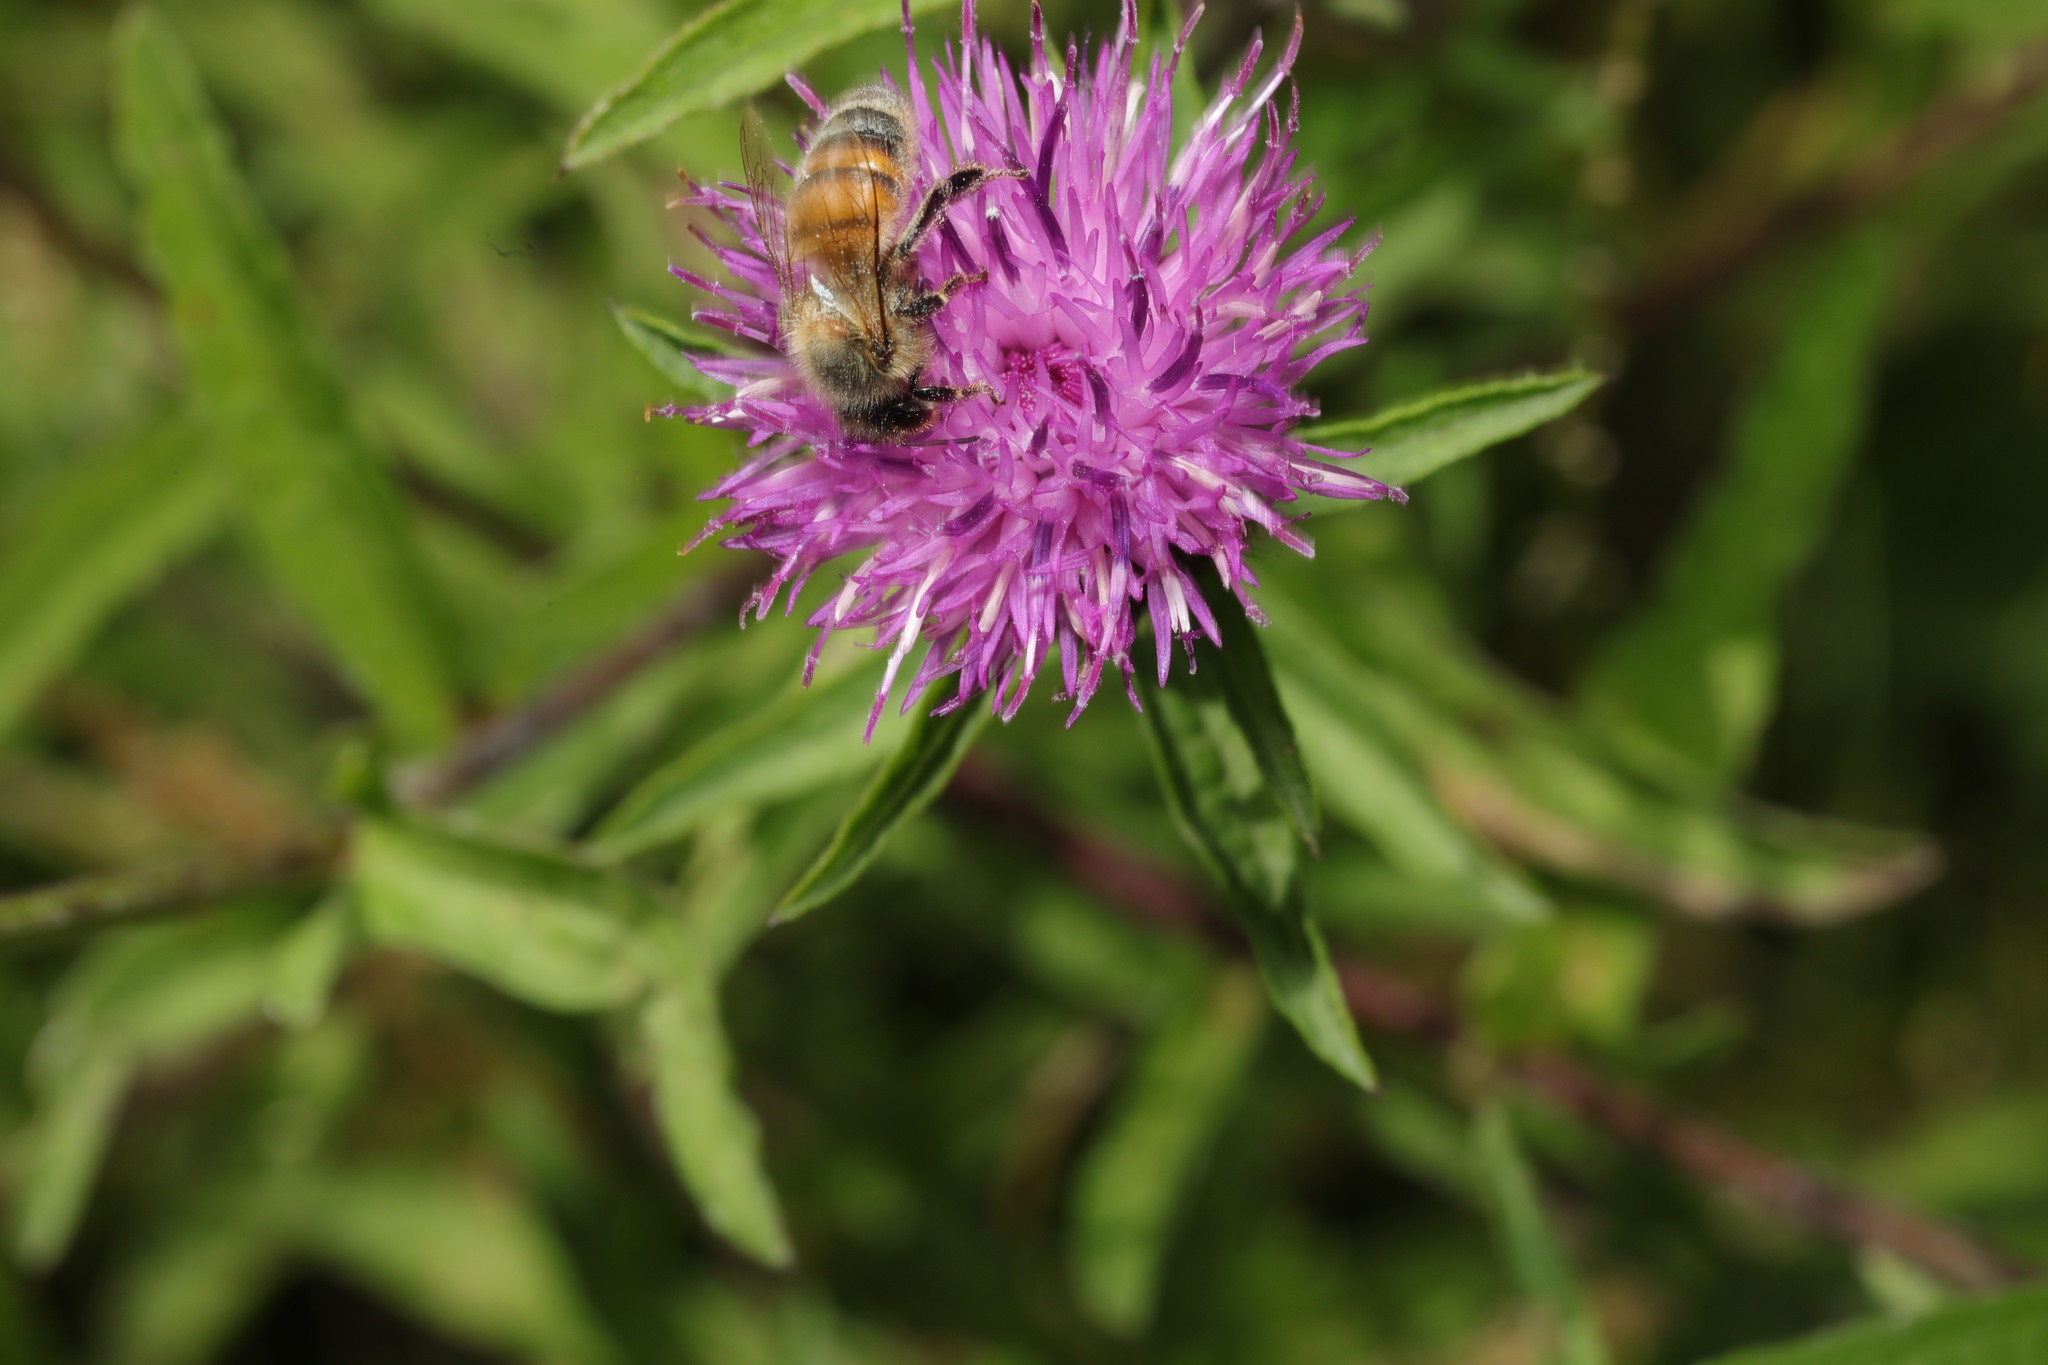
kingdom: Animalia
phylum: Arthropoda
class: Insecta
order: Hymenoptera
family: Apidae
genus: Apis
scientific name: Apis mellifera
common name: Honey bee
